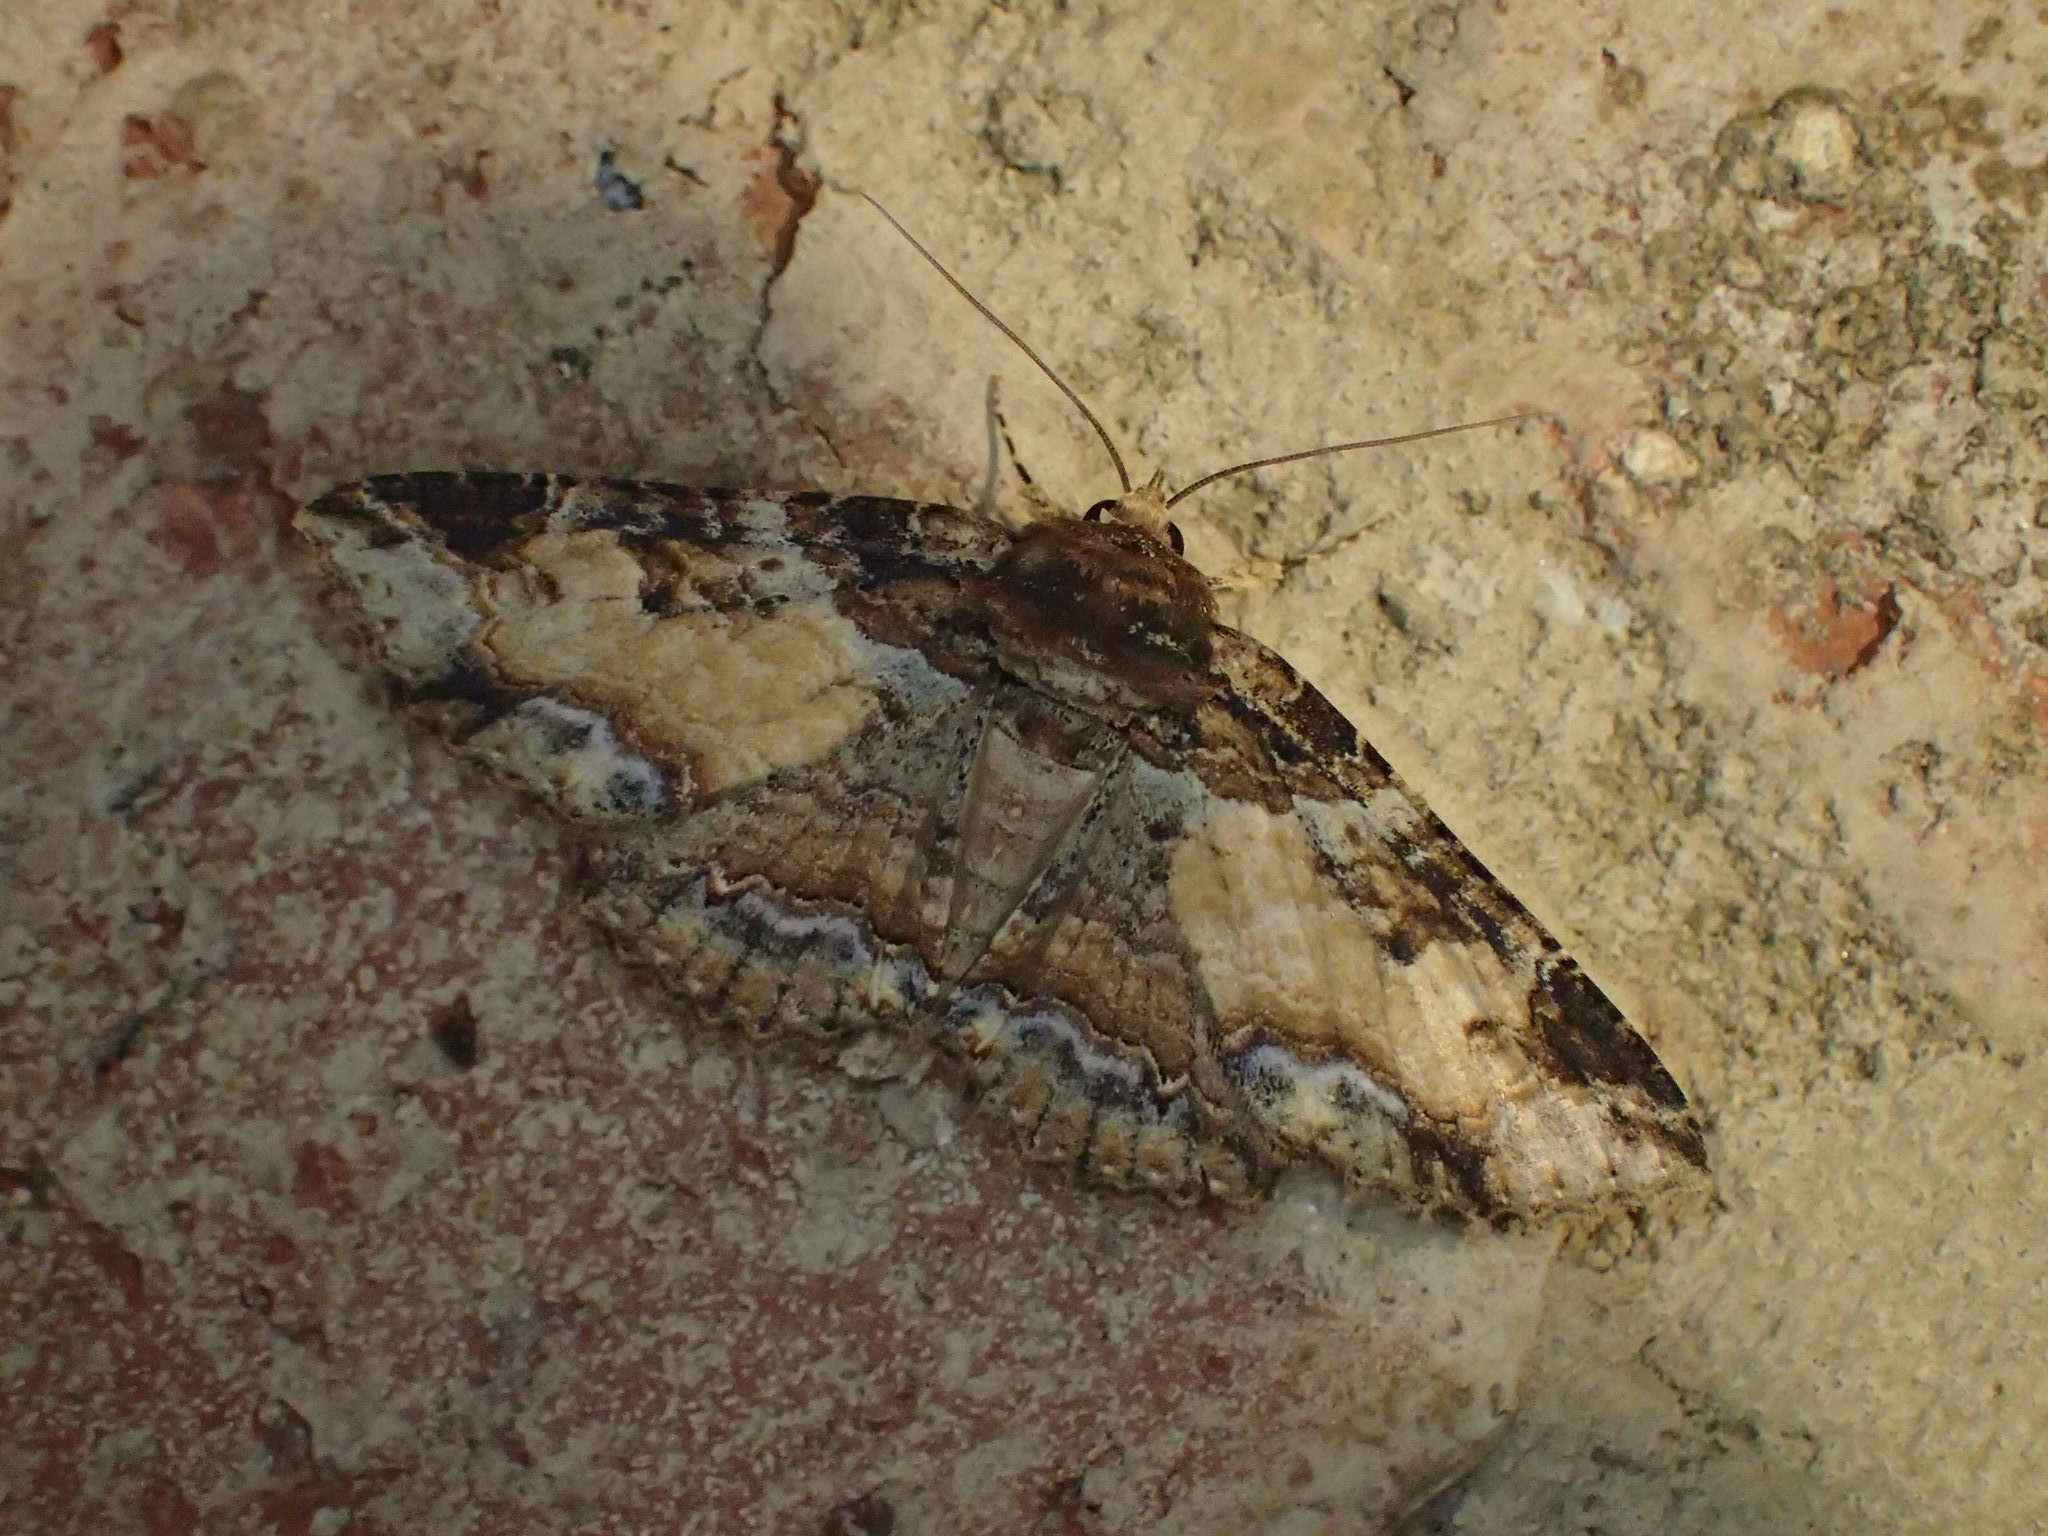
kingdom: Animalia
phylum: Arthropoda
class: Insecta
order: Lepidoptera
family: Erebidae
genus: Zale
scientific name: Zale minerea
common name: Colorful zale moth
